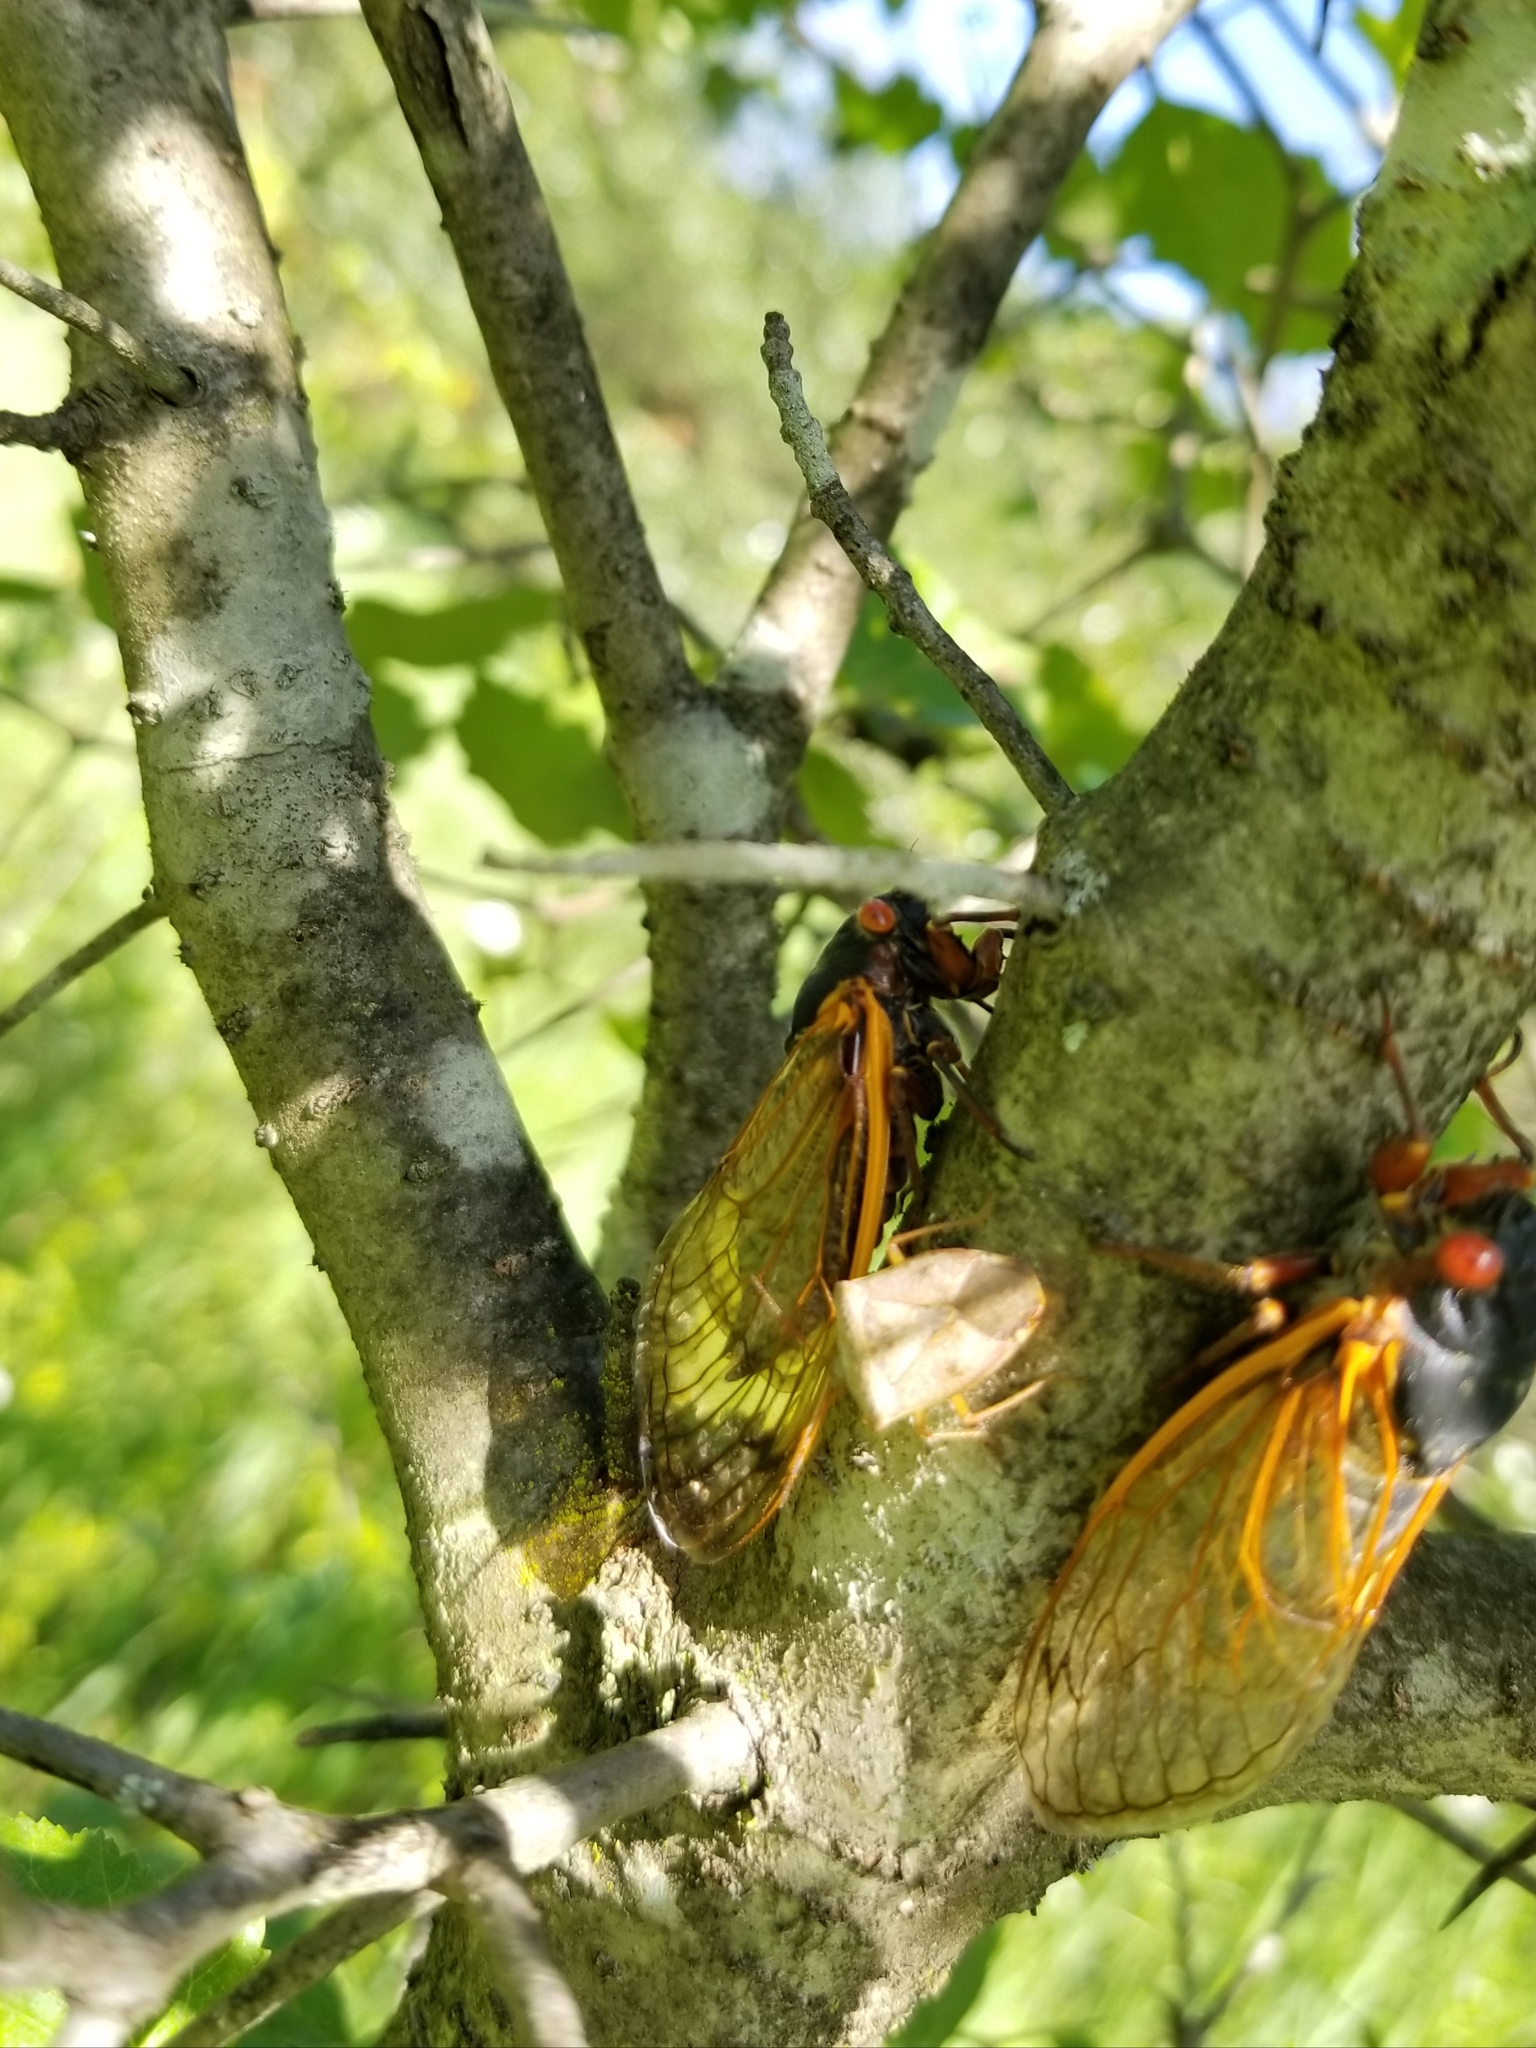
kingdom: Animalia
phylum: Arthropoda
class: Insecta
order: Hemiptera
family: Cicadidae
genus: Magicicada
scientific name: Magicicada septendecim
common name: Periodical cicada
